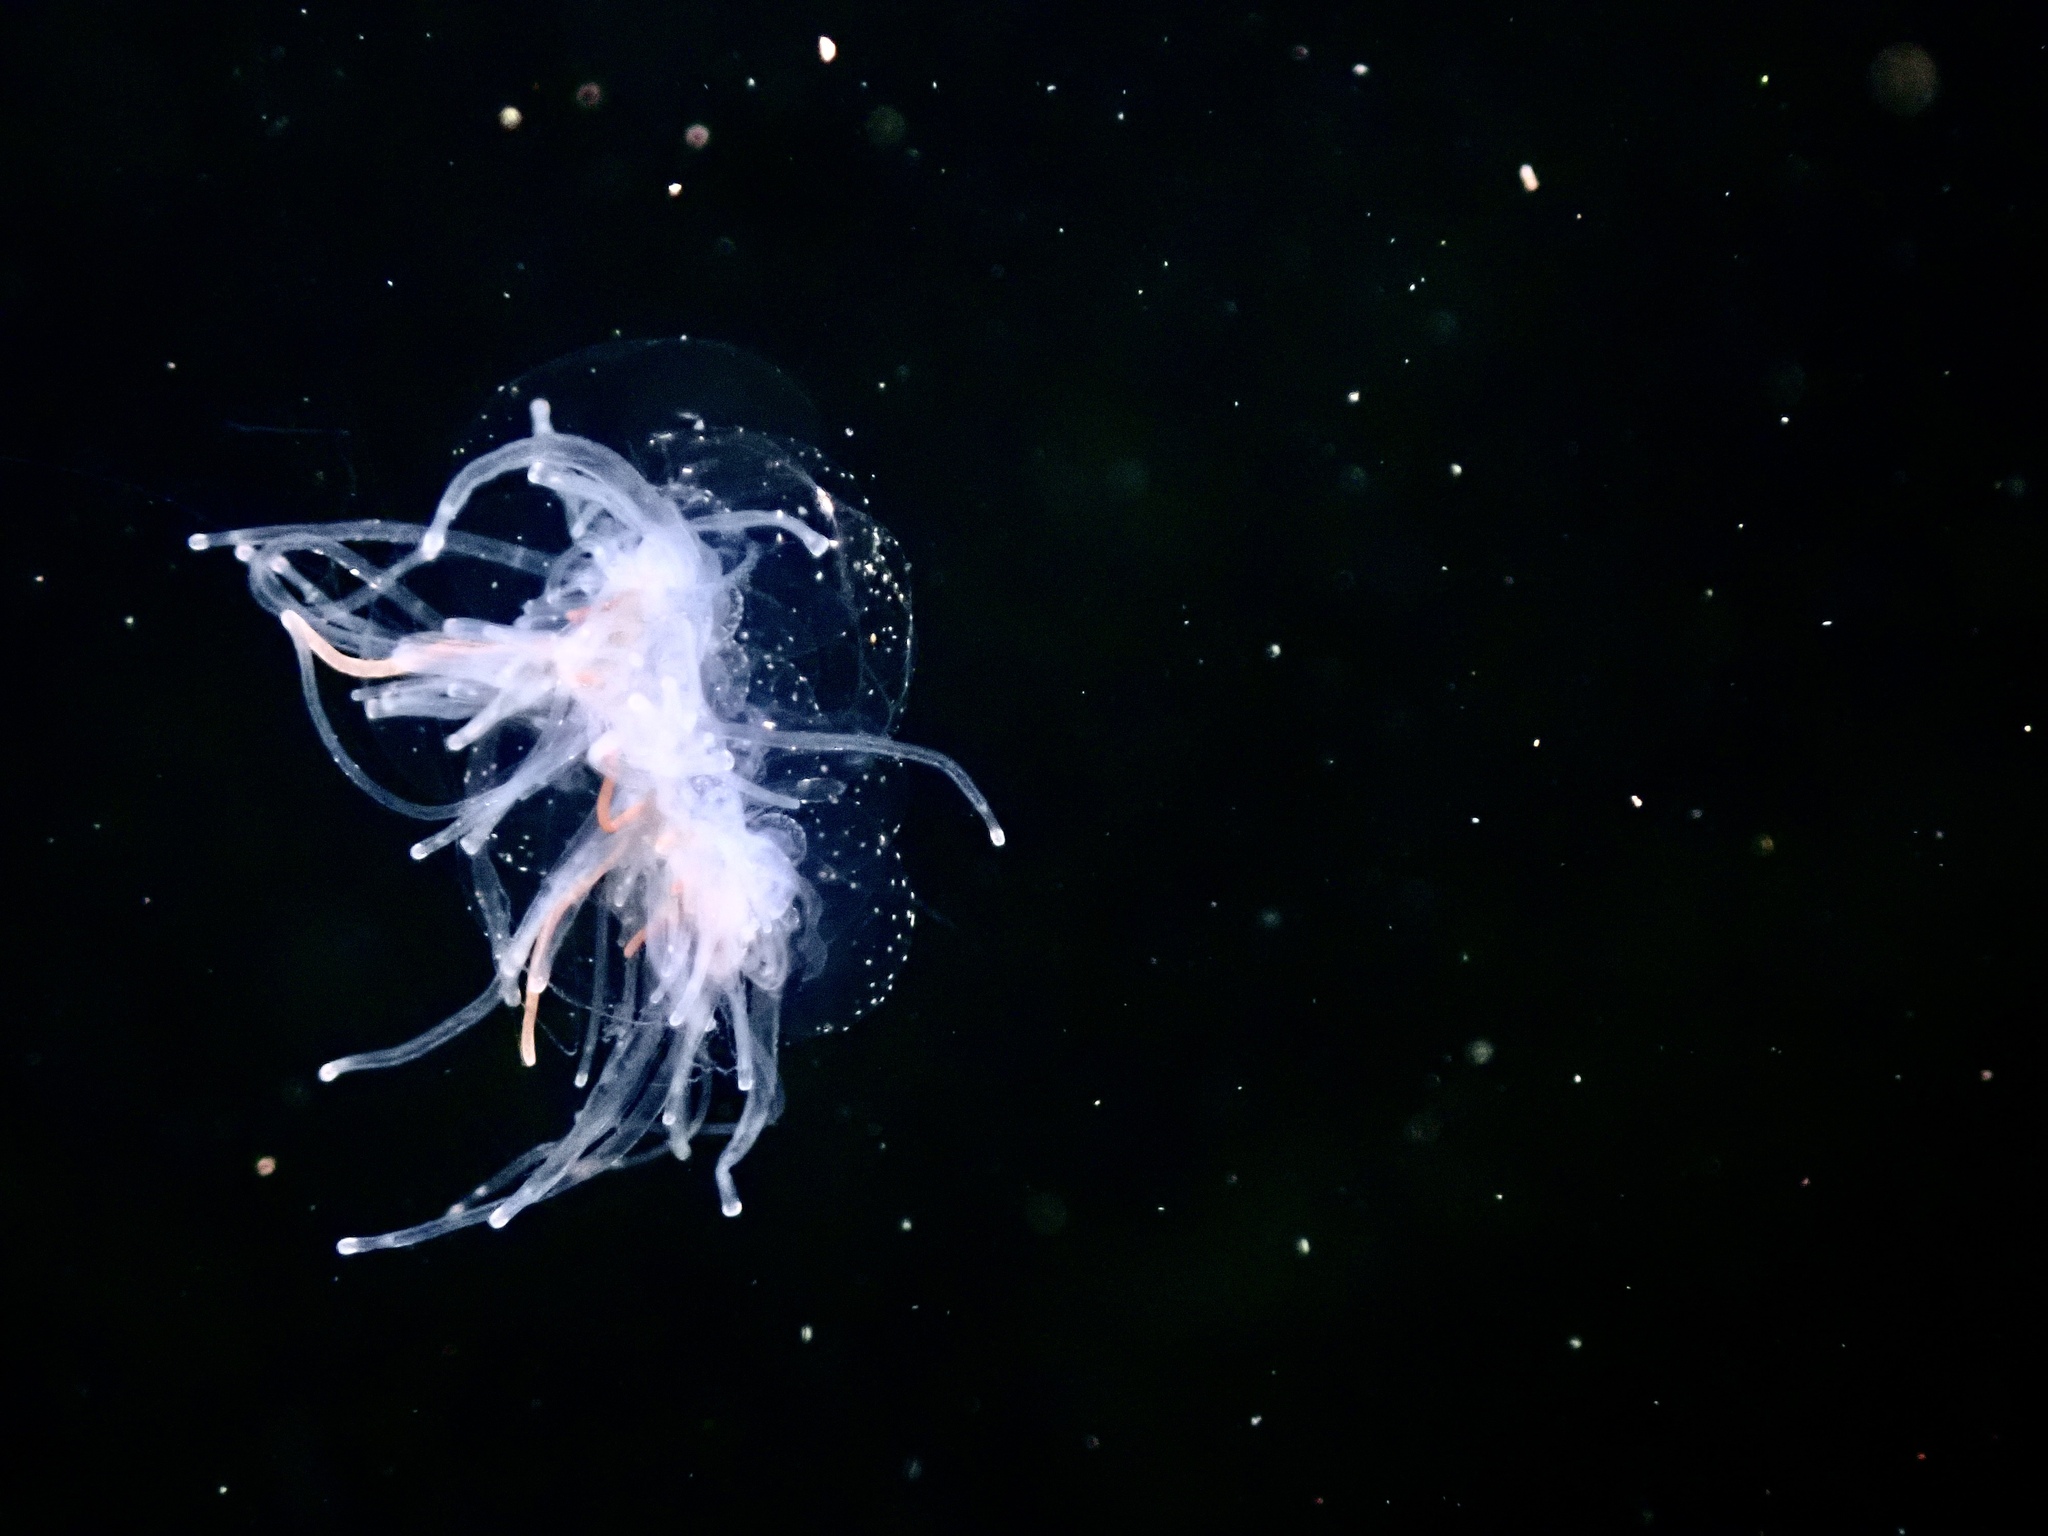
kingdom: Animalia
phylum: Cnidaria
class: Hydrozoa
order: Siphonophorae
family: Apolemiidae
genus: Apolemia
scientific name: Apolemia uvaria
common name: String jelly
